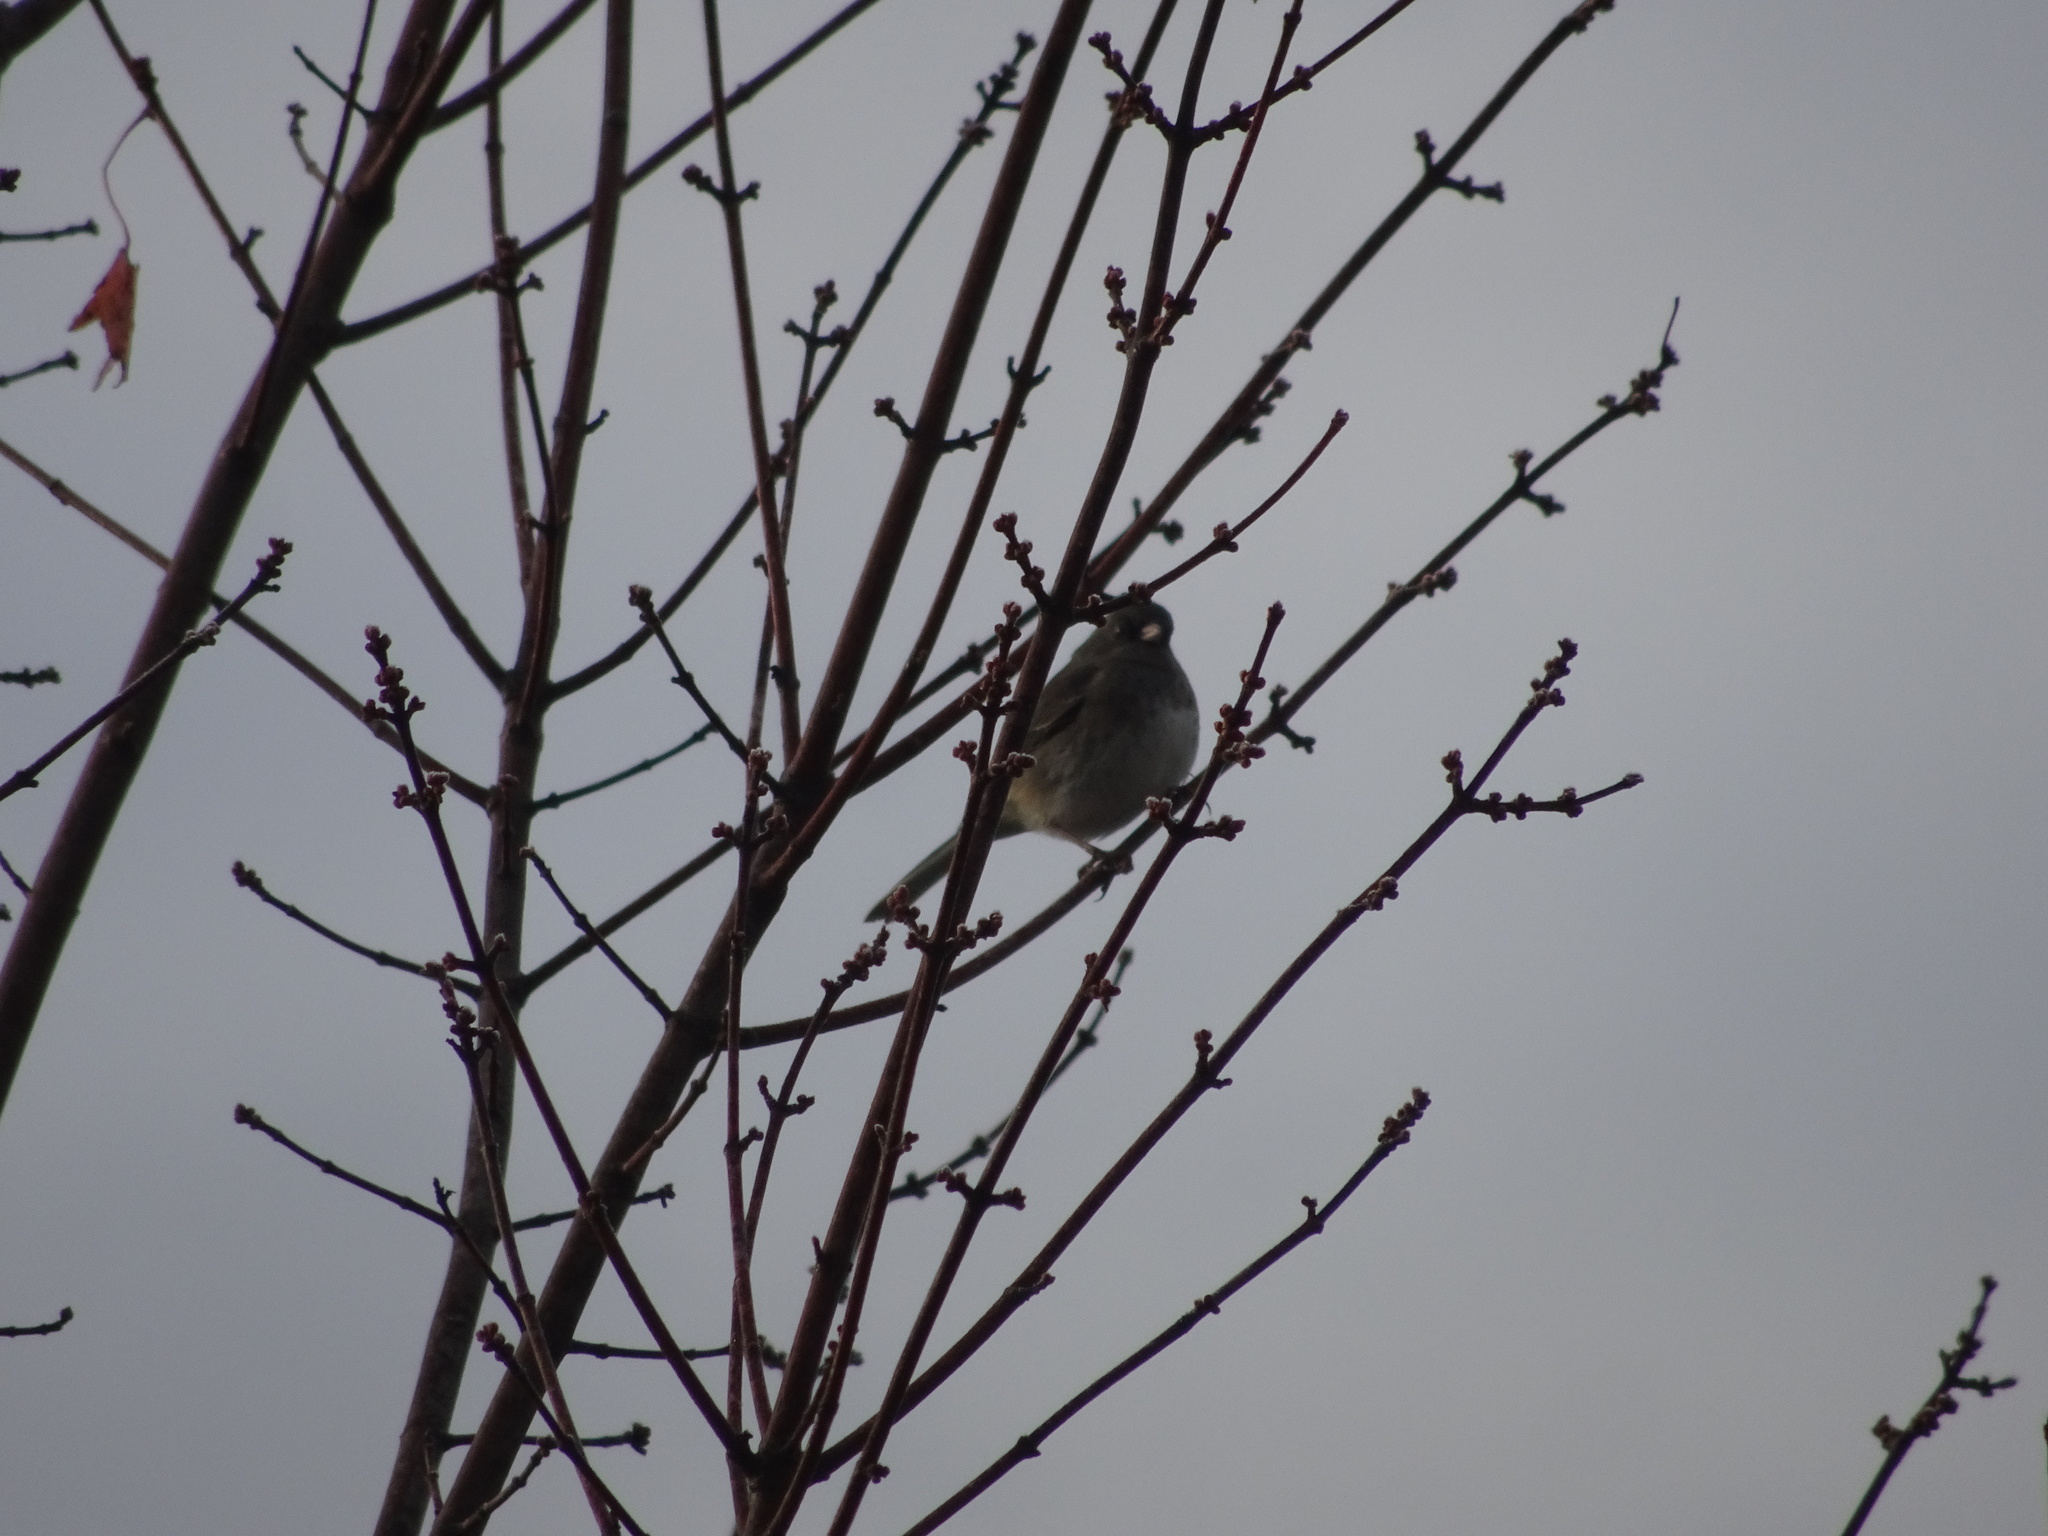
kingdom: Animalia
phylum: Chordata
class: Aves
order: Passeriformes
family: Passerellidae
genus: Junco
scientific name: Junco hyemalis
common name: Dark-eyed junco
